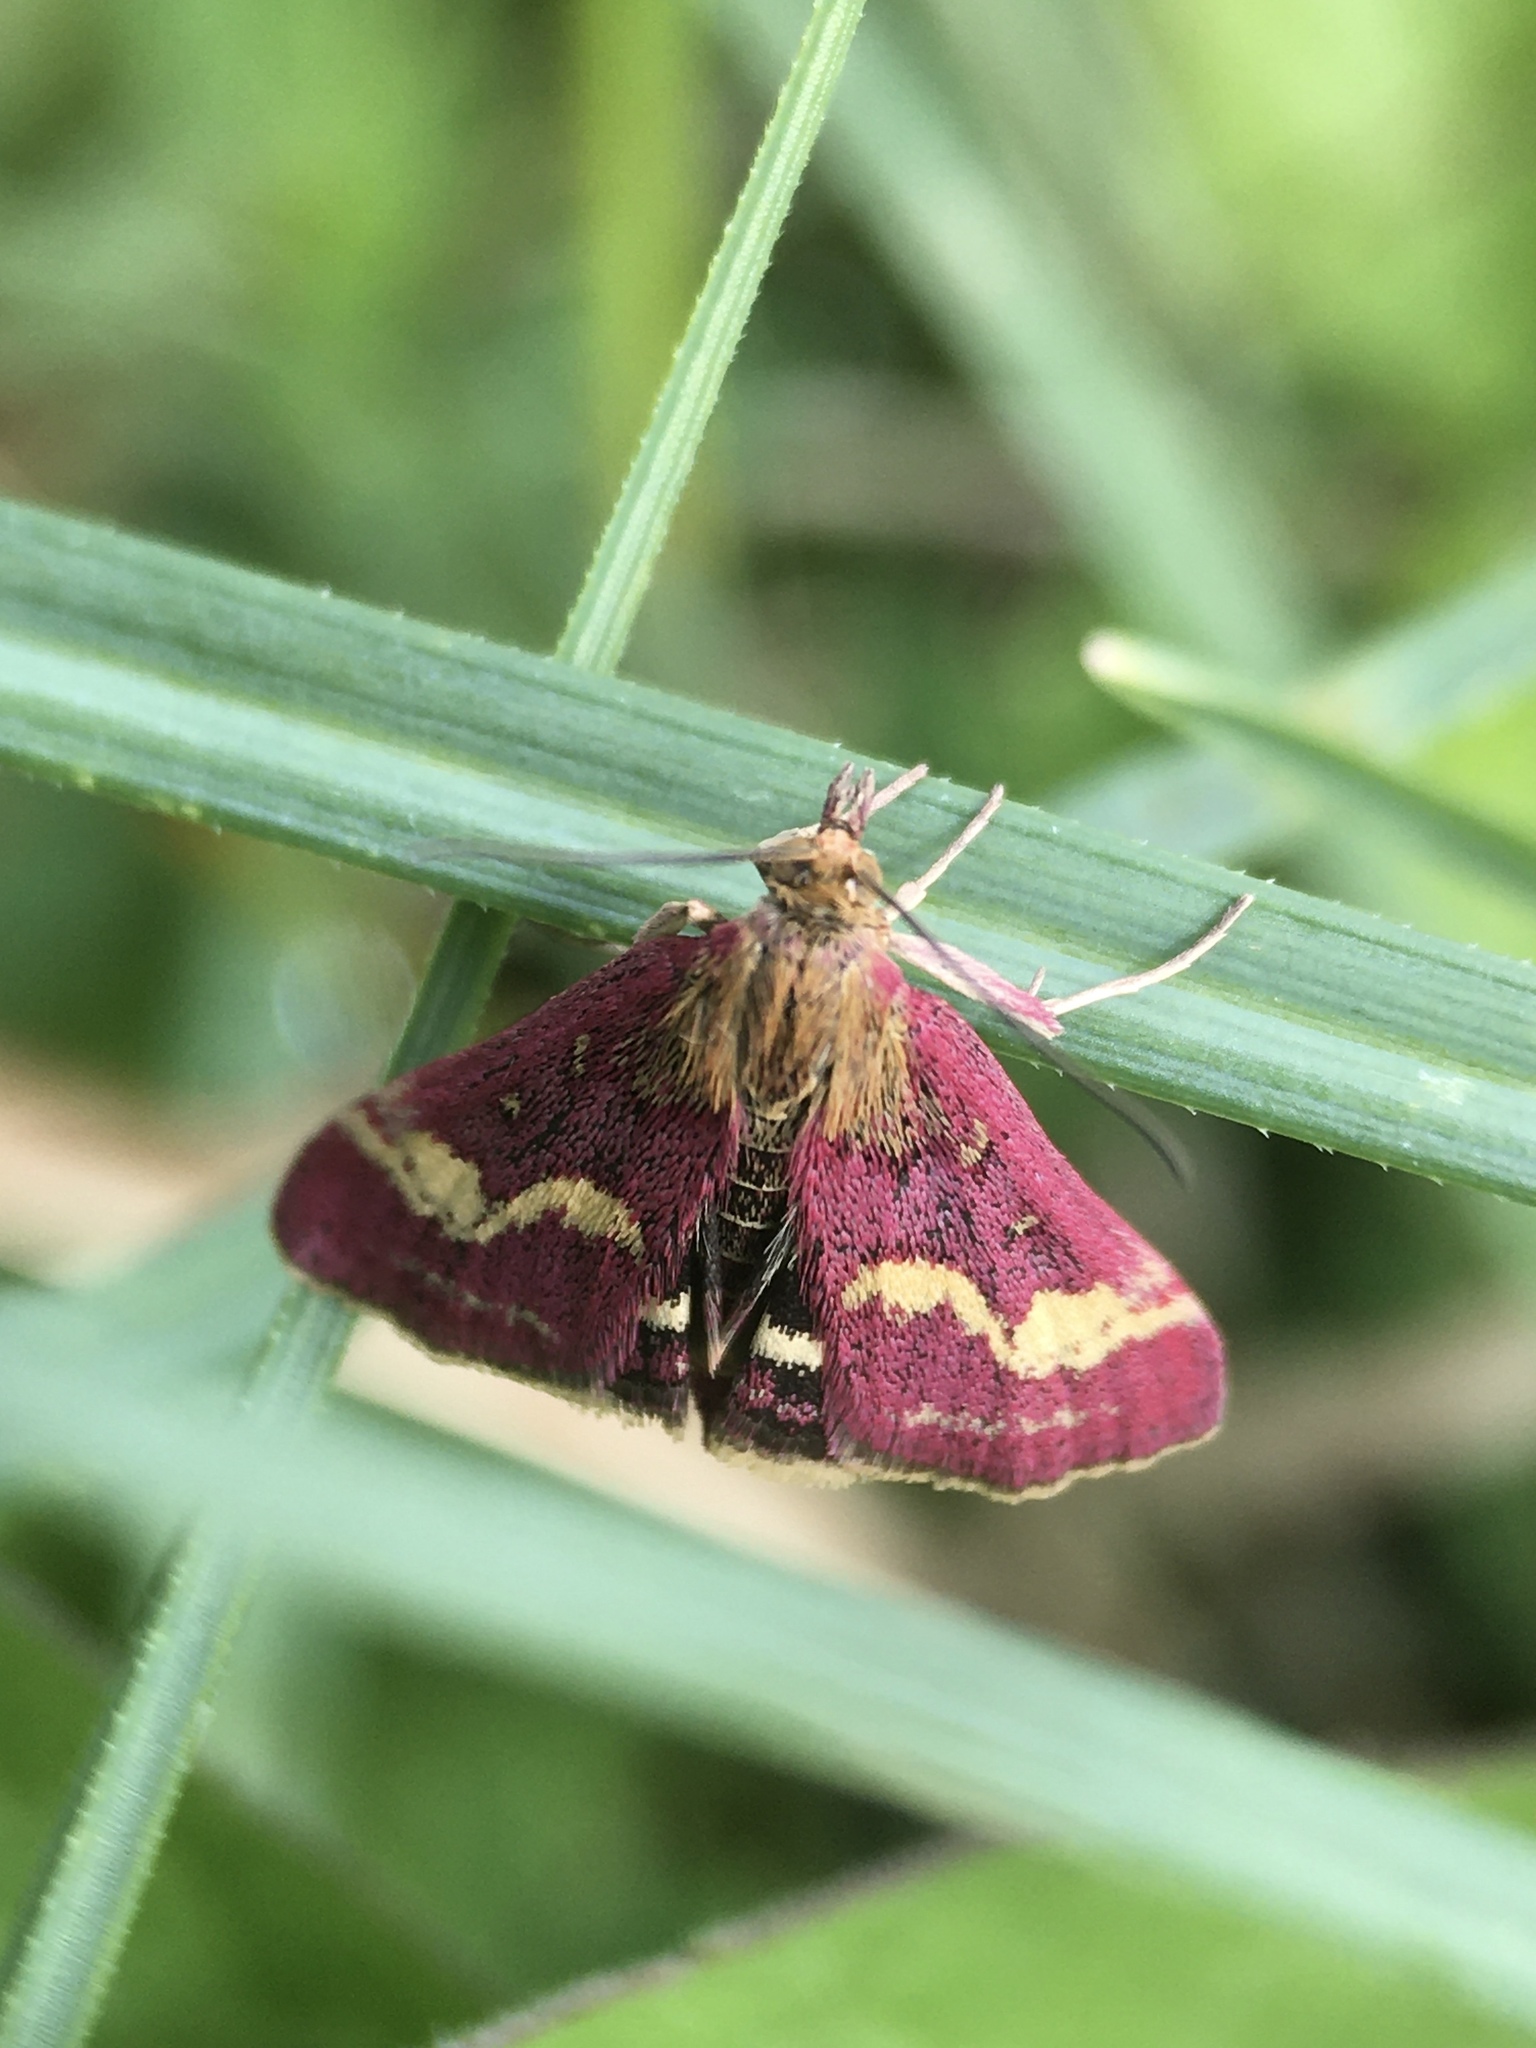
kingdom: Animalia
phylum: Arthropoda
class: Insecta
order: Lepidoptera
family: Crambidae
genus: Pyrausta
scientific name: Pyrausta purpuralis
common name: Common purple & gold
